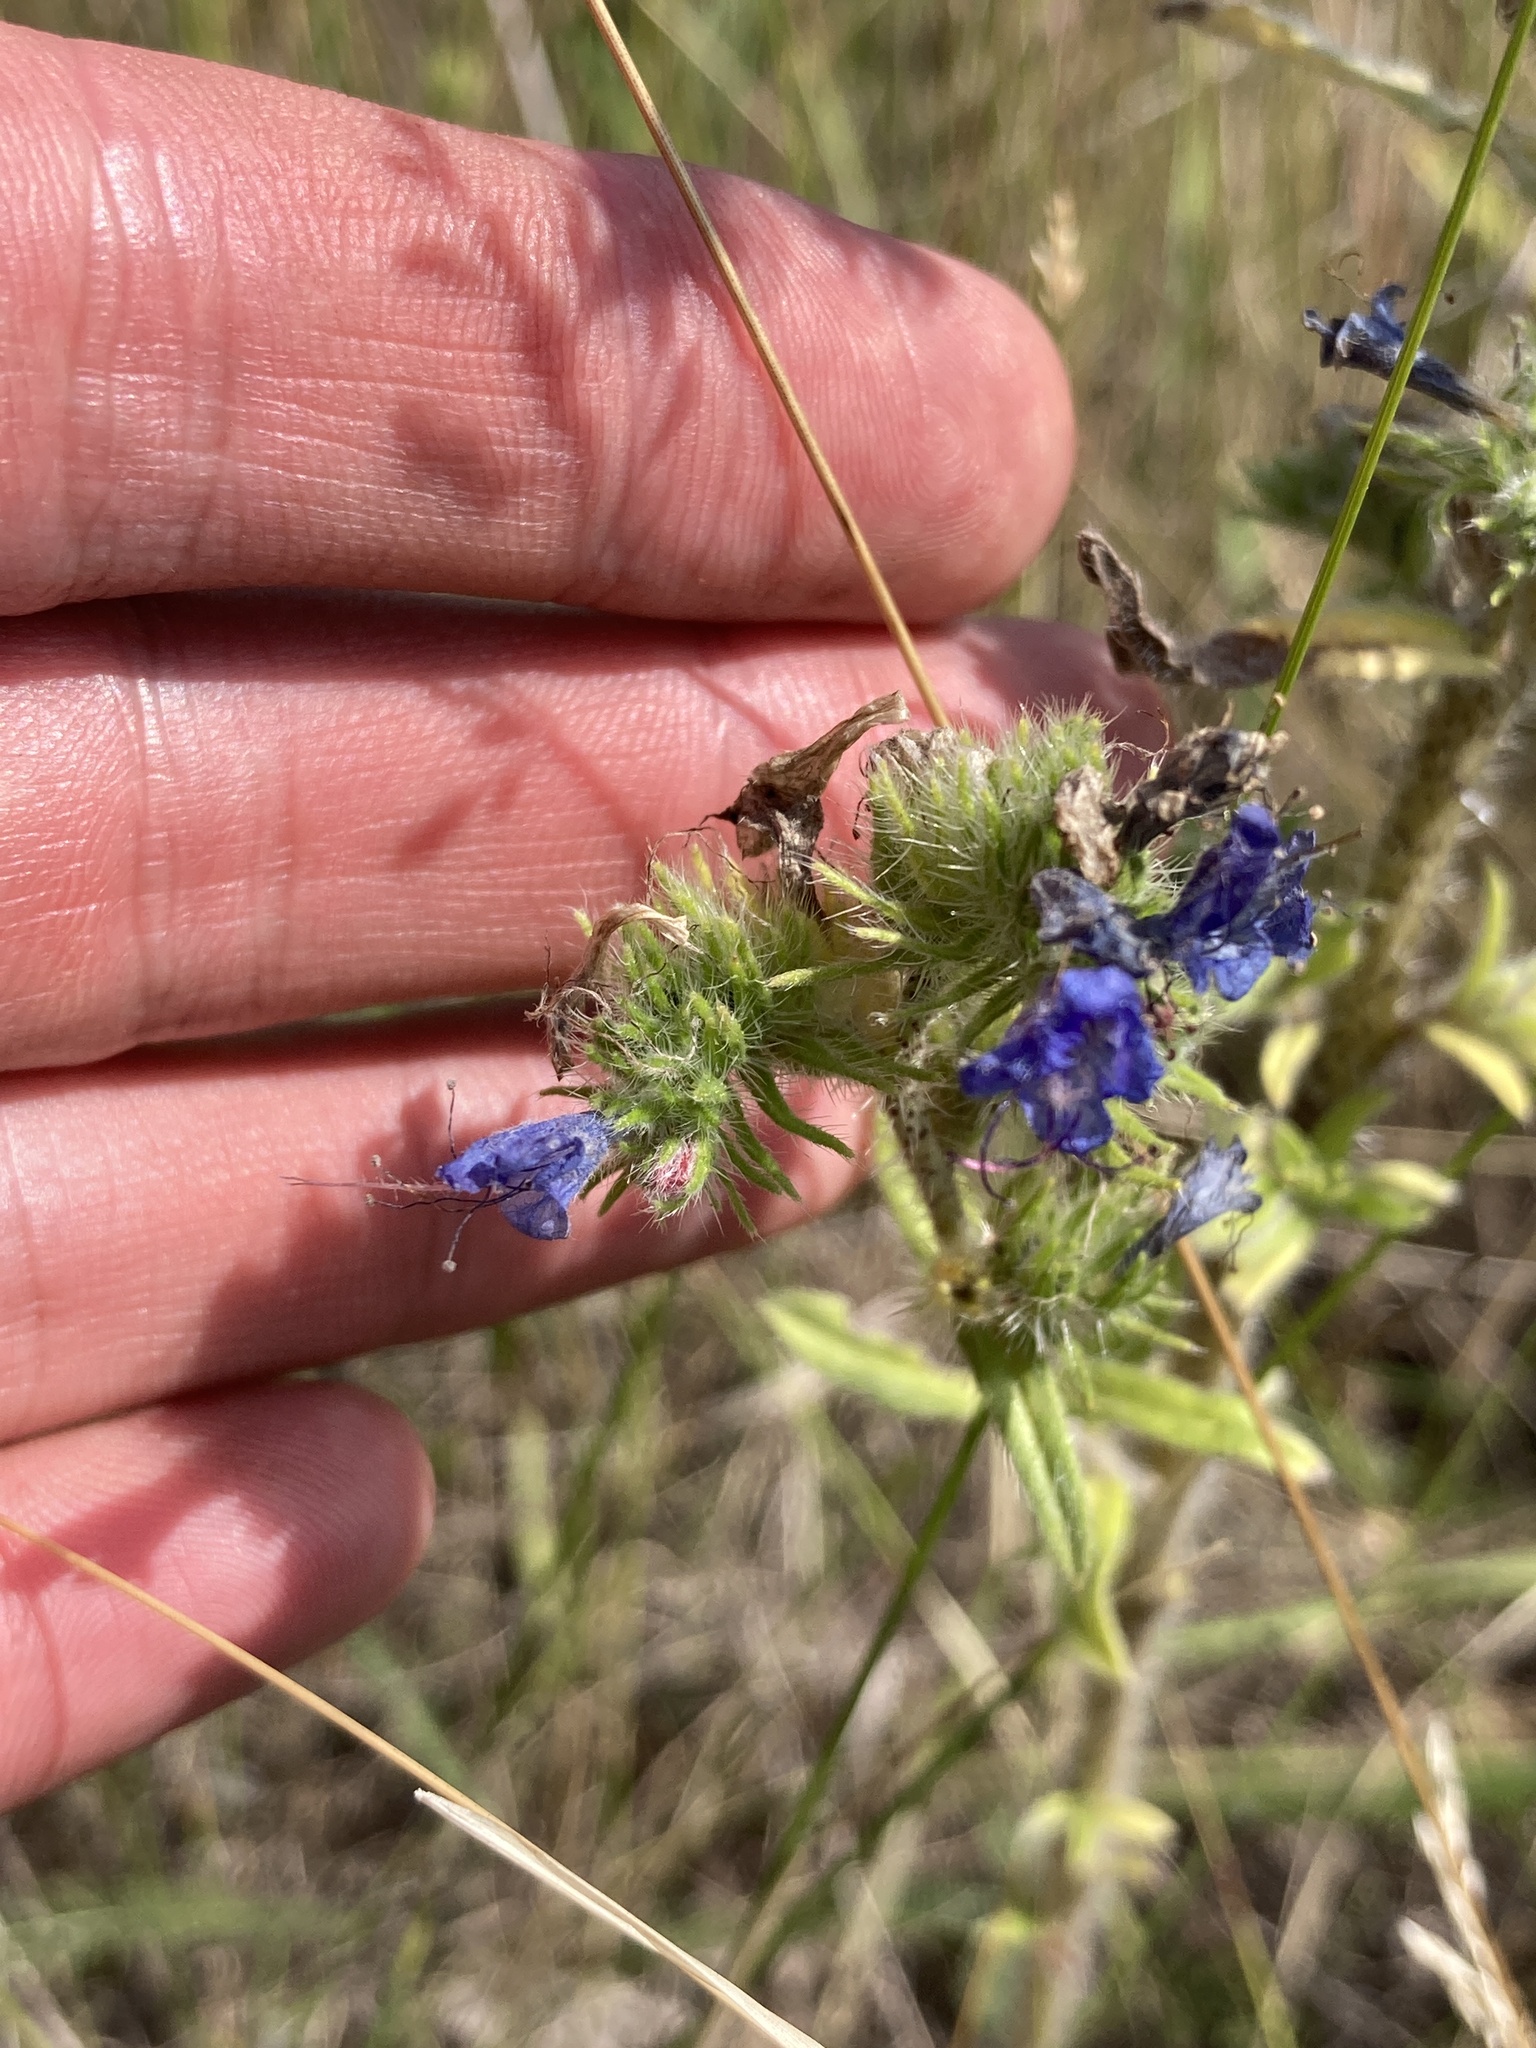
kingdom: Plantae
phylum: Tracheophyta
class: Magnoliopsida
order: Boraginales
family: Boraginaceae
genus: Echium
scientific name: Echium vulgare
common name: Common viper's bugloss
